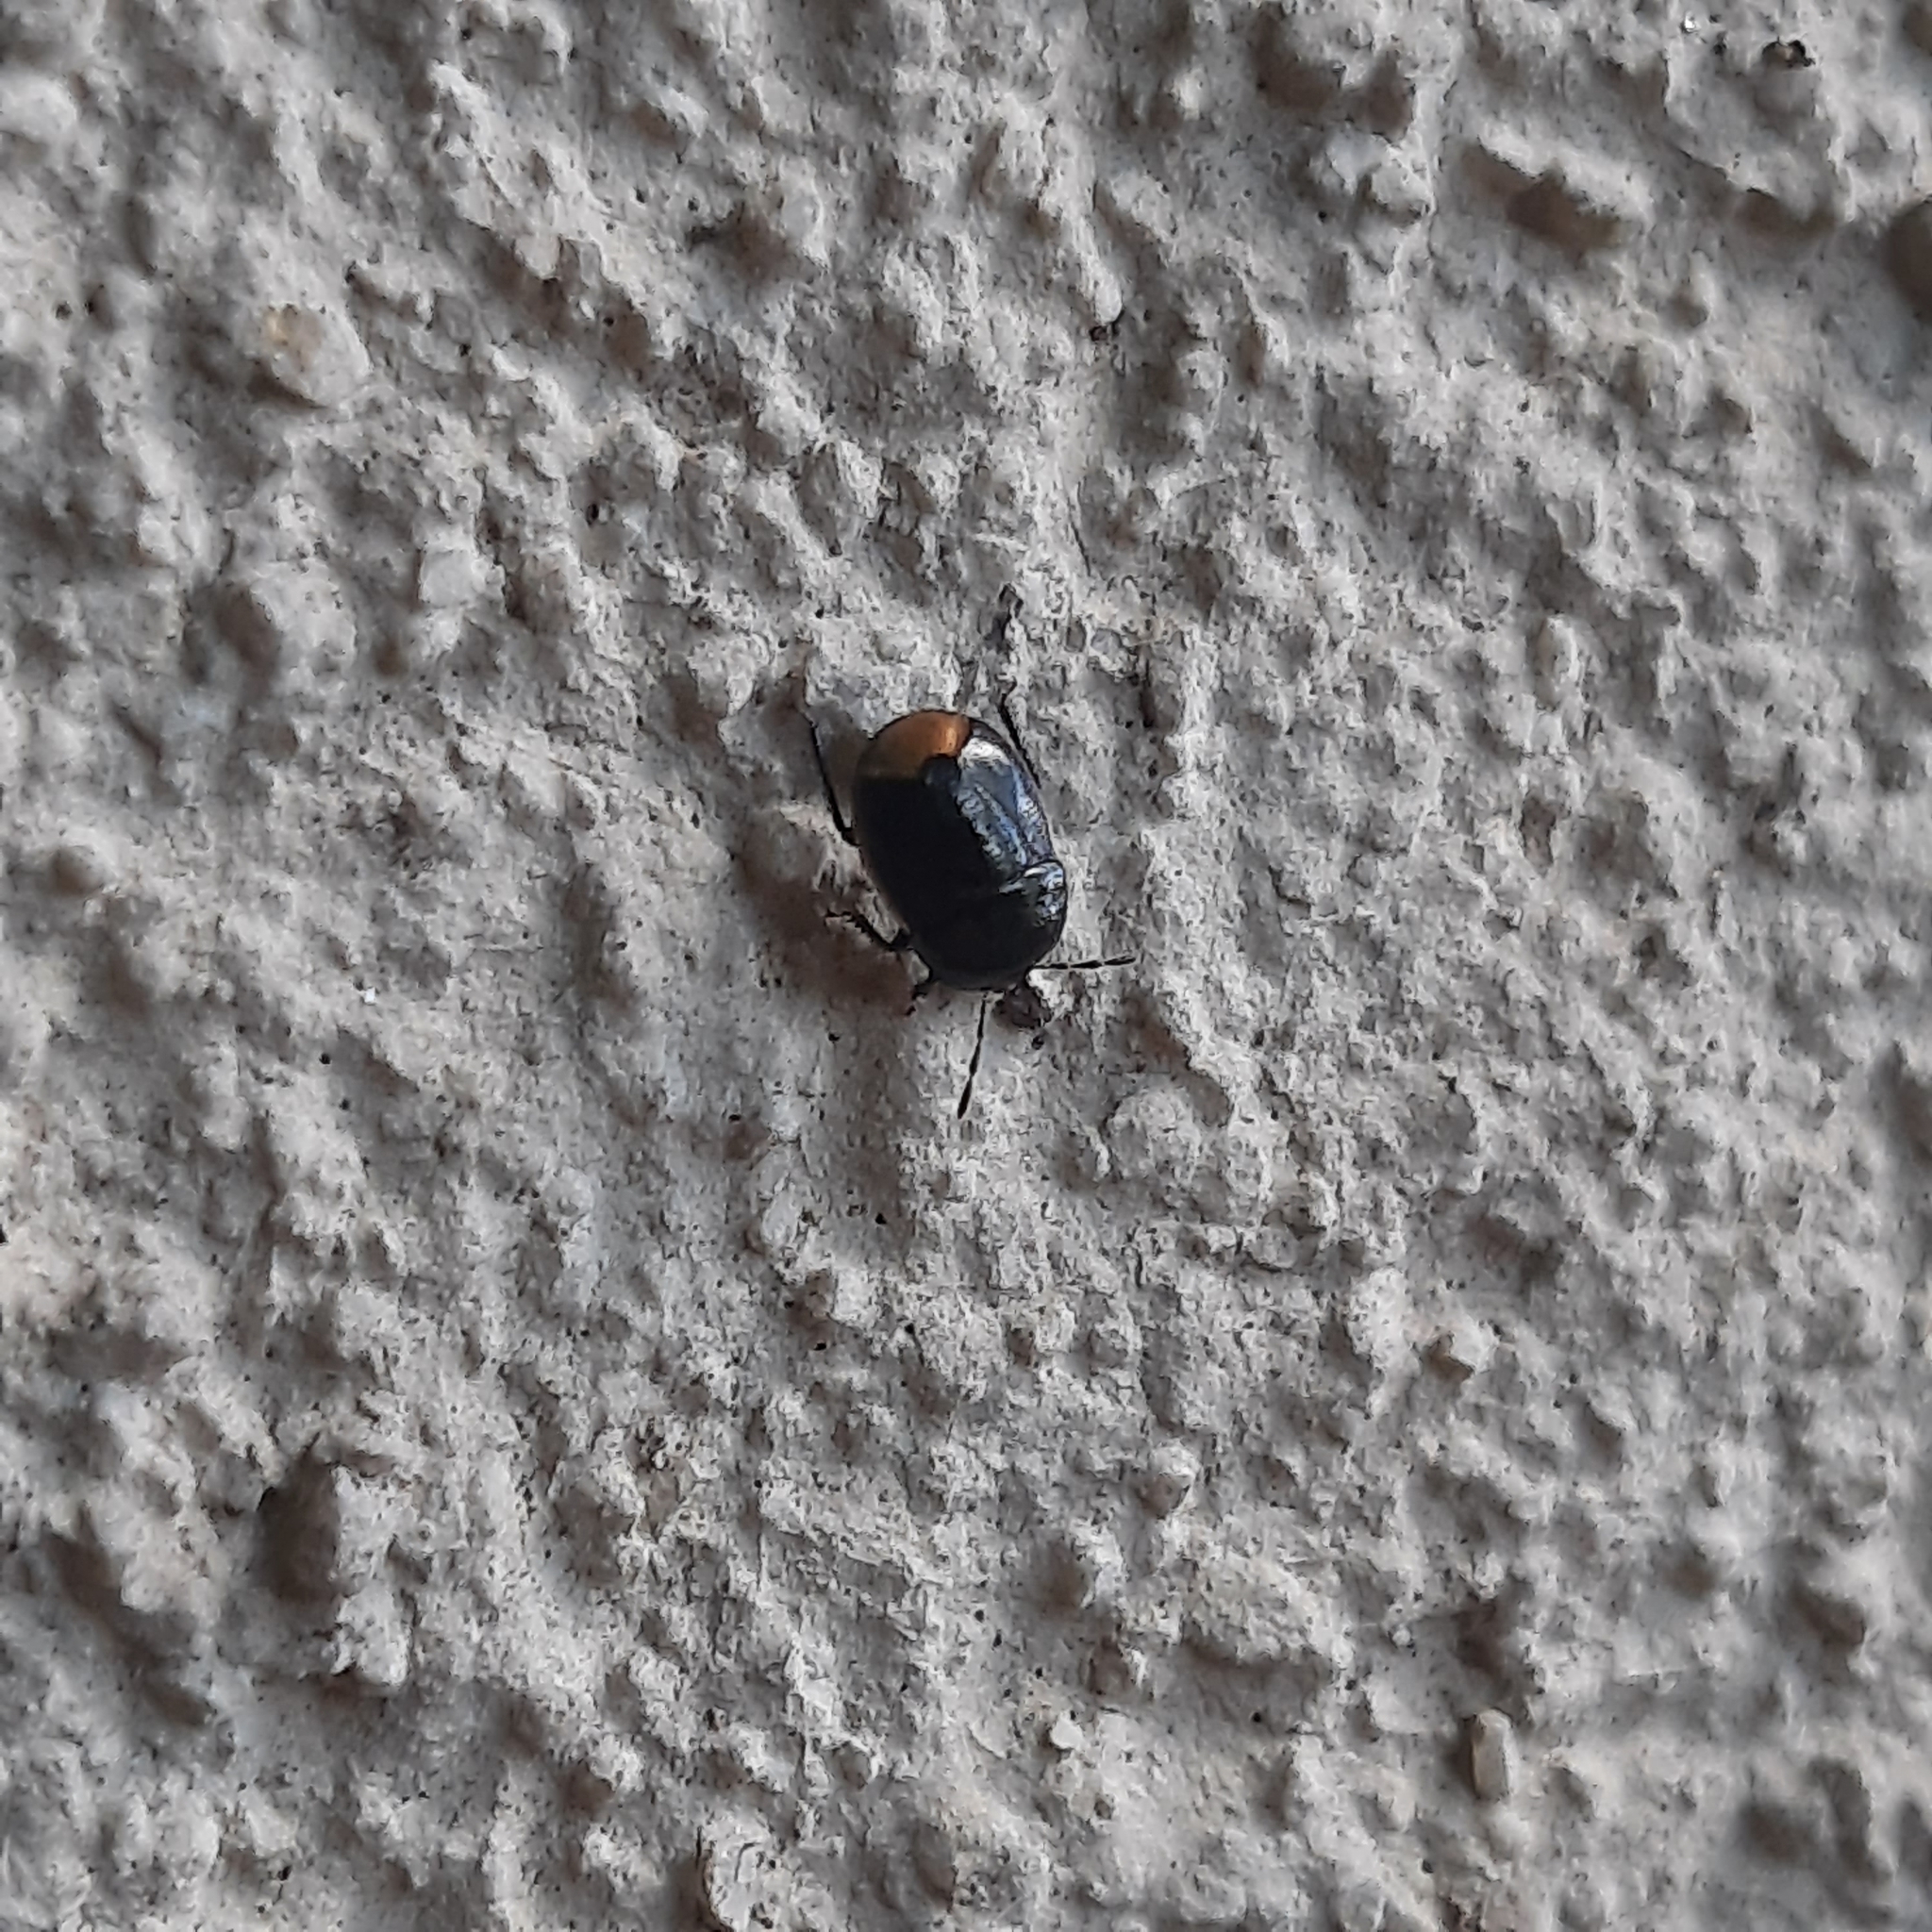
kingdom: Animalia
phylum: Arthropoda
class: Insecta
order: Hemiptera
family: Cydnidae
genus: Legnotus
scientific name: Legnotus limbosus
